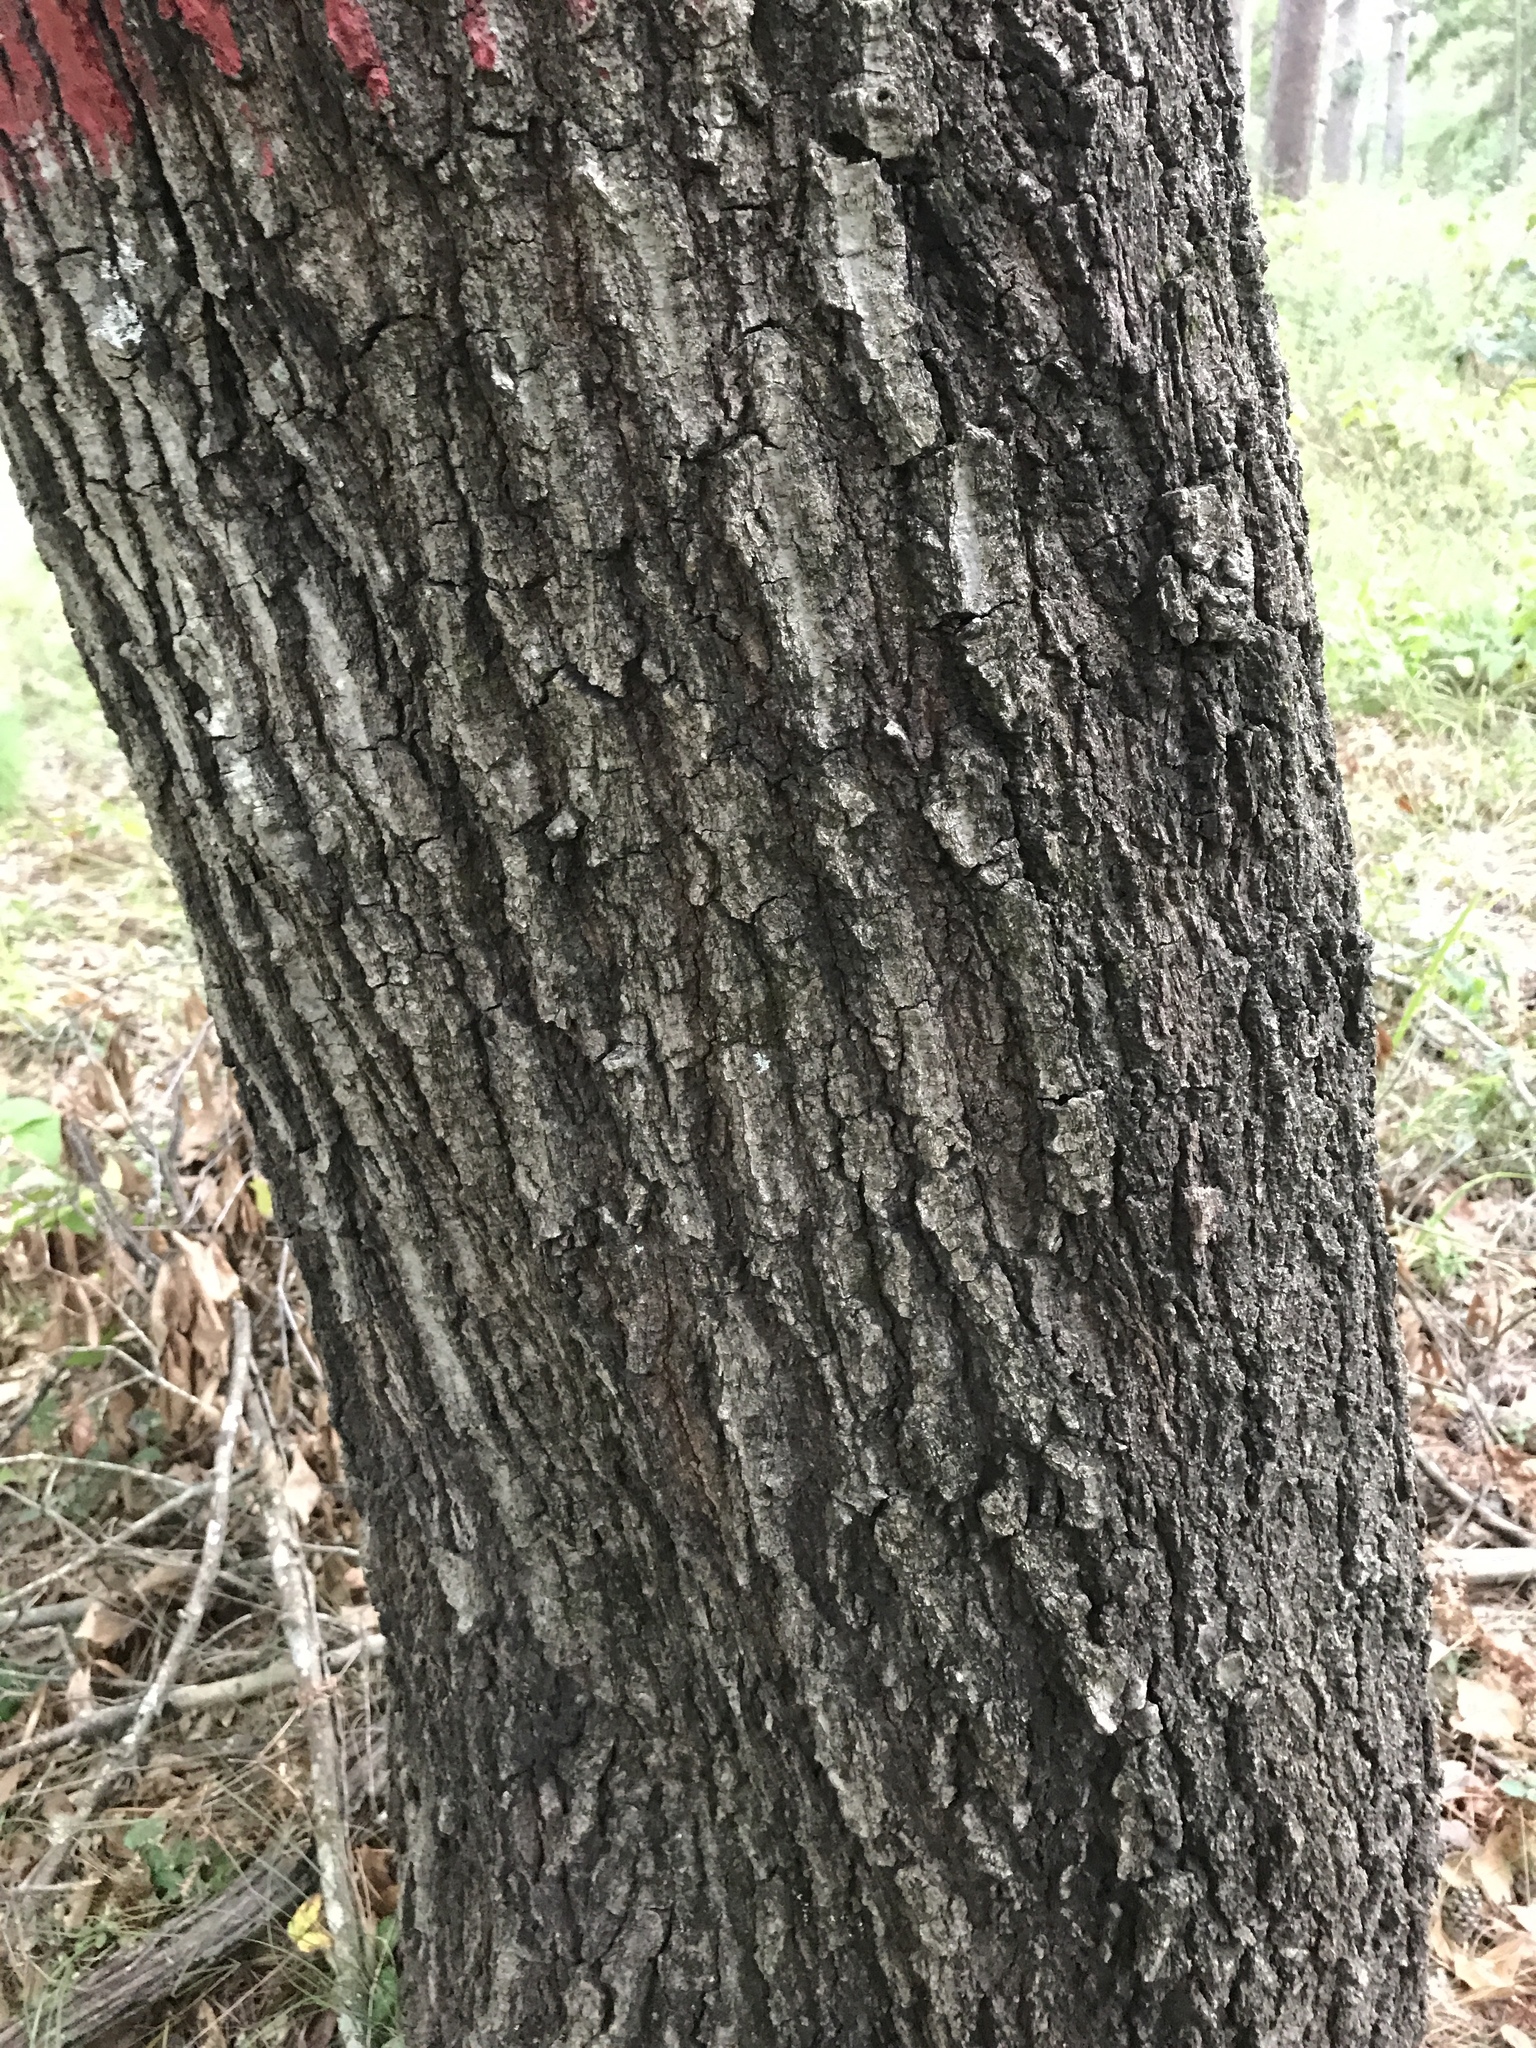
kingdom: Plantae
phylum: Tracheophyta
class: Magnoliopsida
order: Fagales
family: Fagaceae
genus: Quercus
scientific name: Quercus nigra
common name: Water oak
